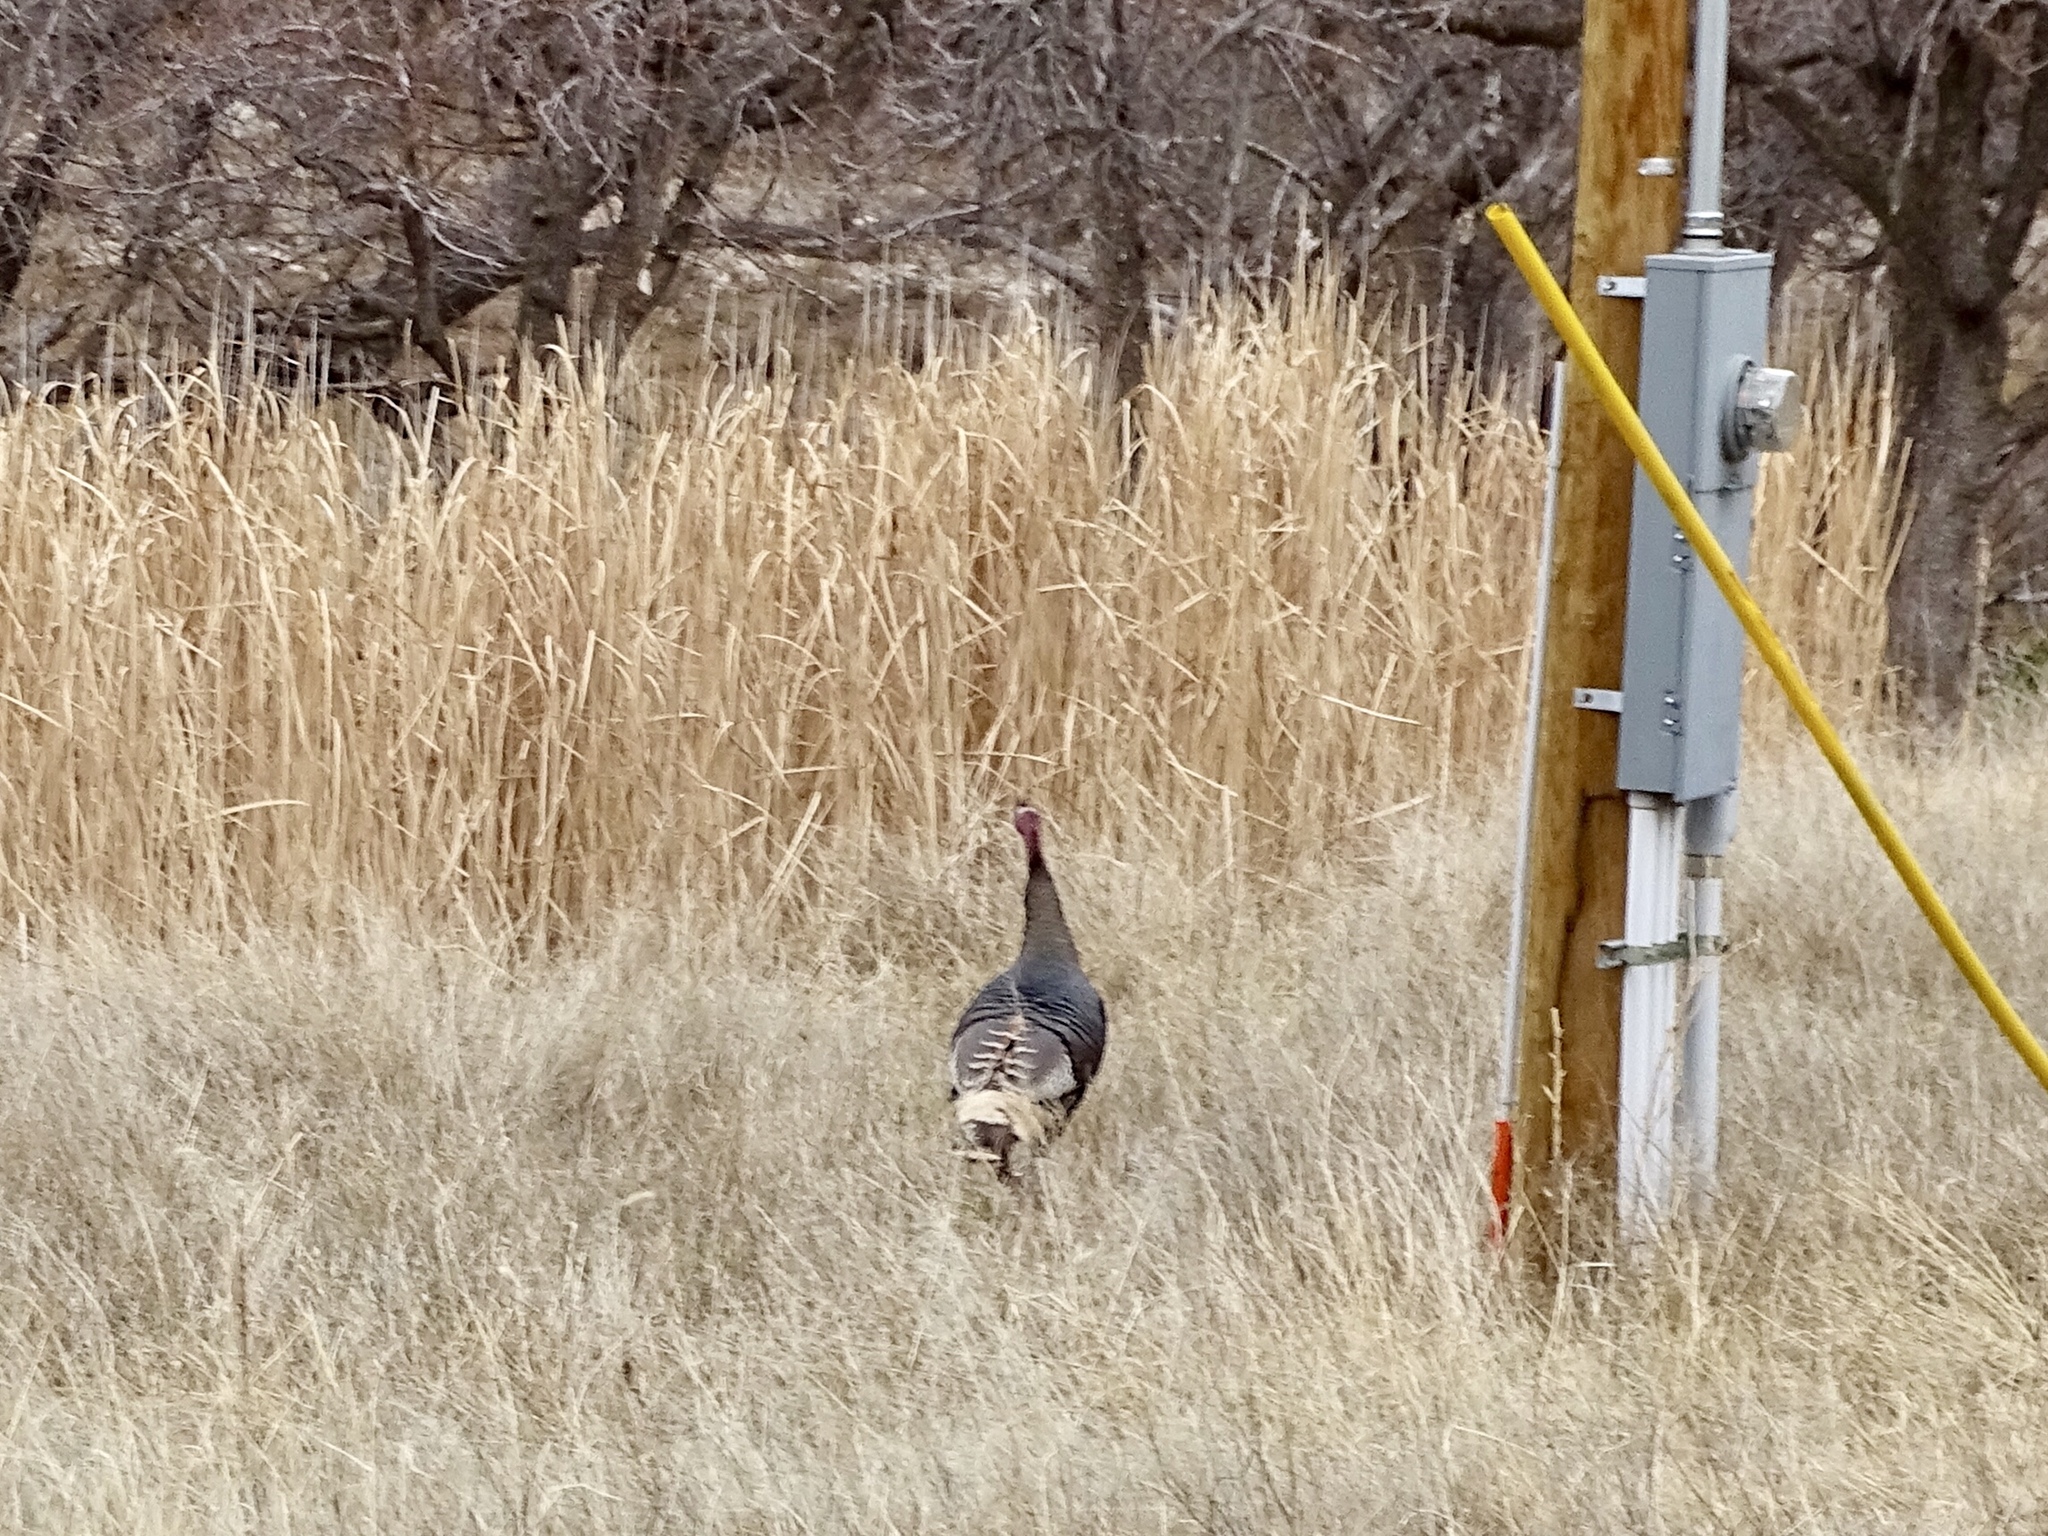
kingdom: Animalia
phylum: Chordata
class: Aves
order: Galliformes
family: Phasianidae
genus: Meleagris
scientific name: Meleagris gallopavo
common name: Wild turkey
